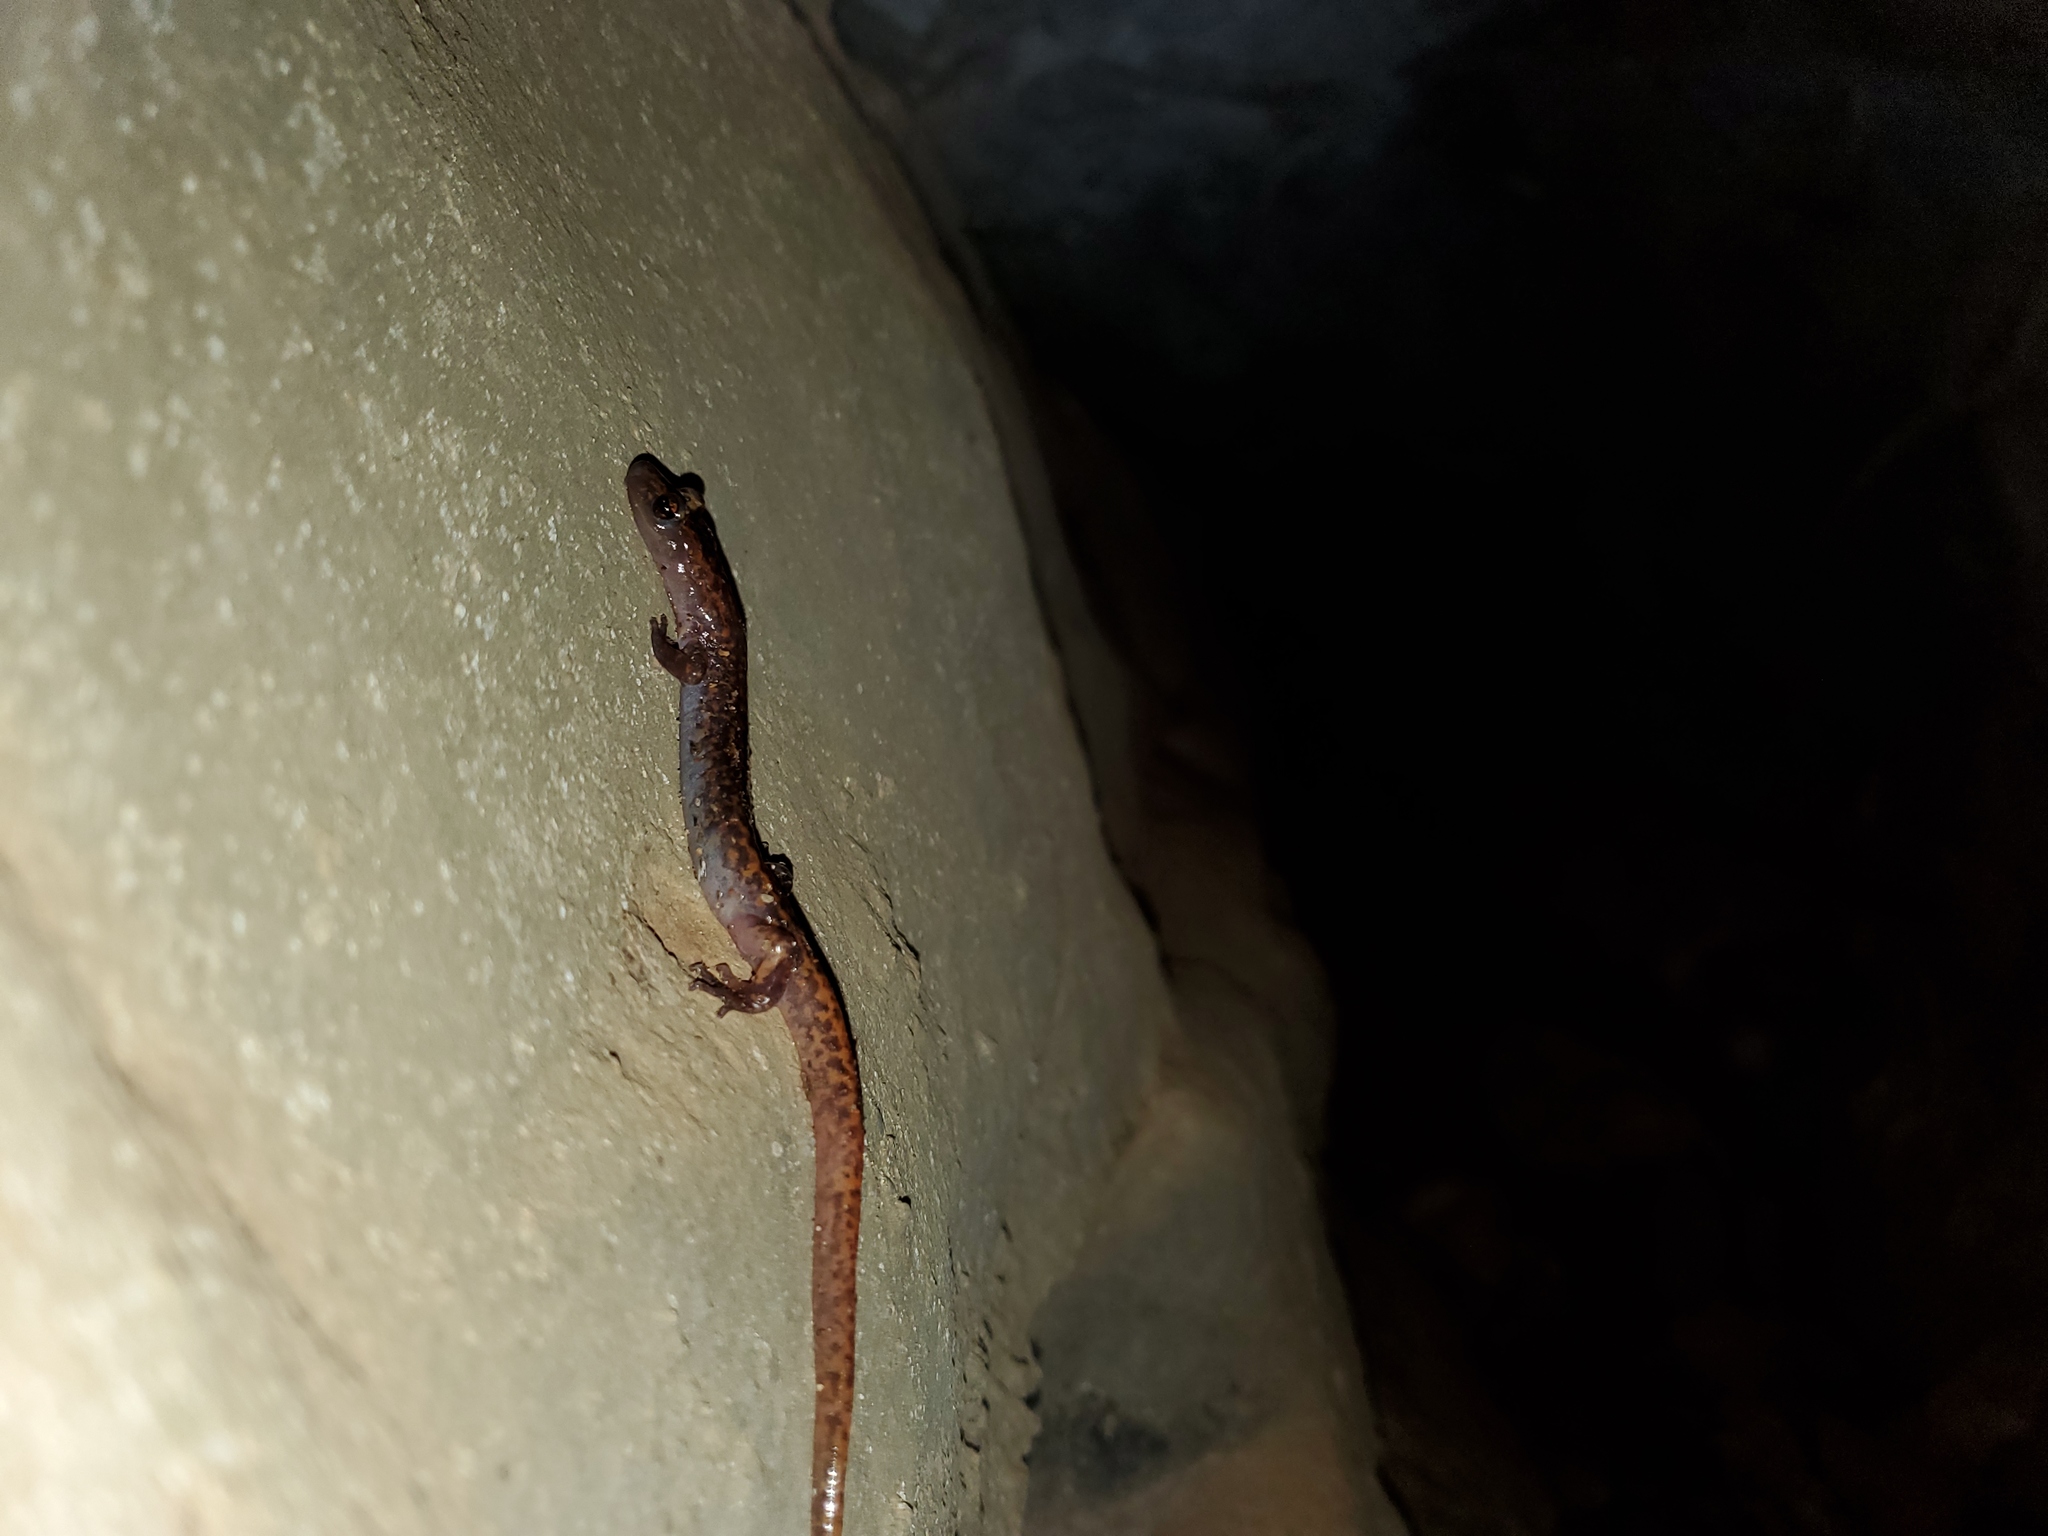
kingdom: Animalia
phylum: Chordata
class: Amphibia
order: Caudata
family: Plethodontidae
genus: Eurycea
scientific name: Eurycea lucifuga
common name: Cave salamander
